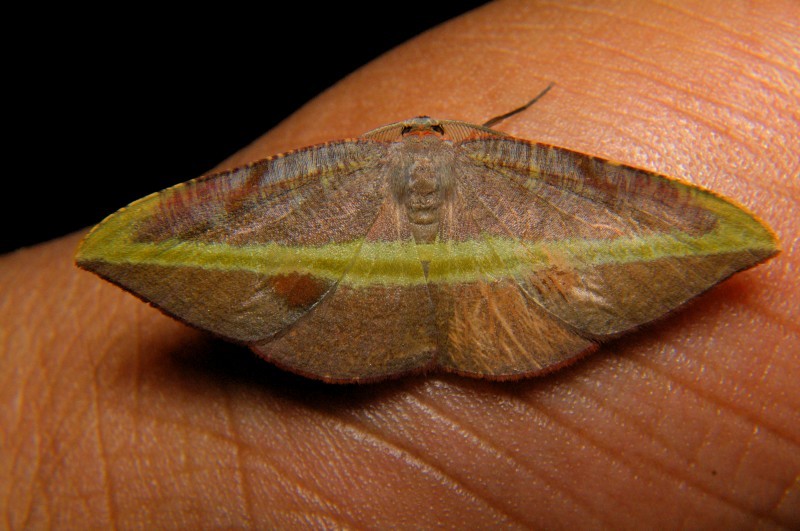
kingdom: Animalia
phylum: Arthropoda
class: Insecta
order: Lepidoptera
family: Geometridae
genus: Hypochrosis
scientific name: Hypochrosis iris
